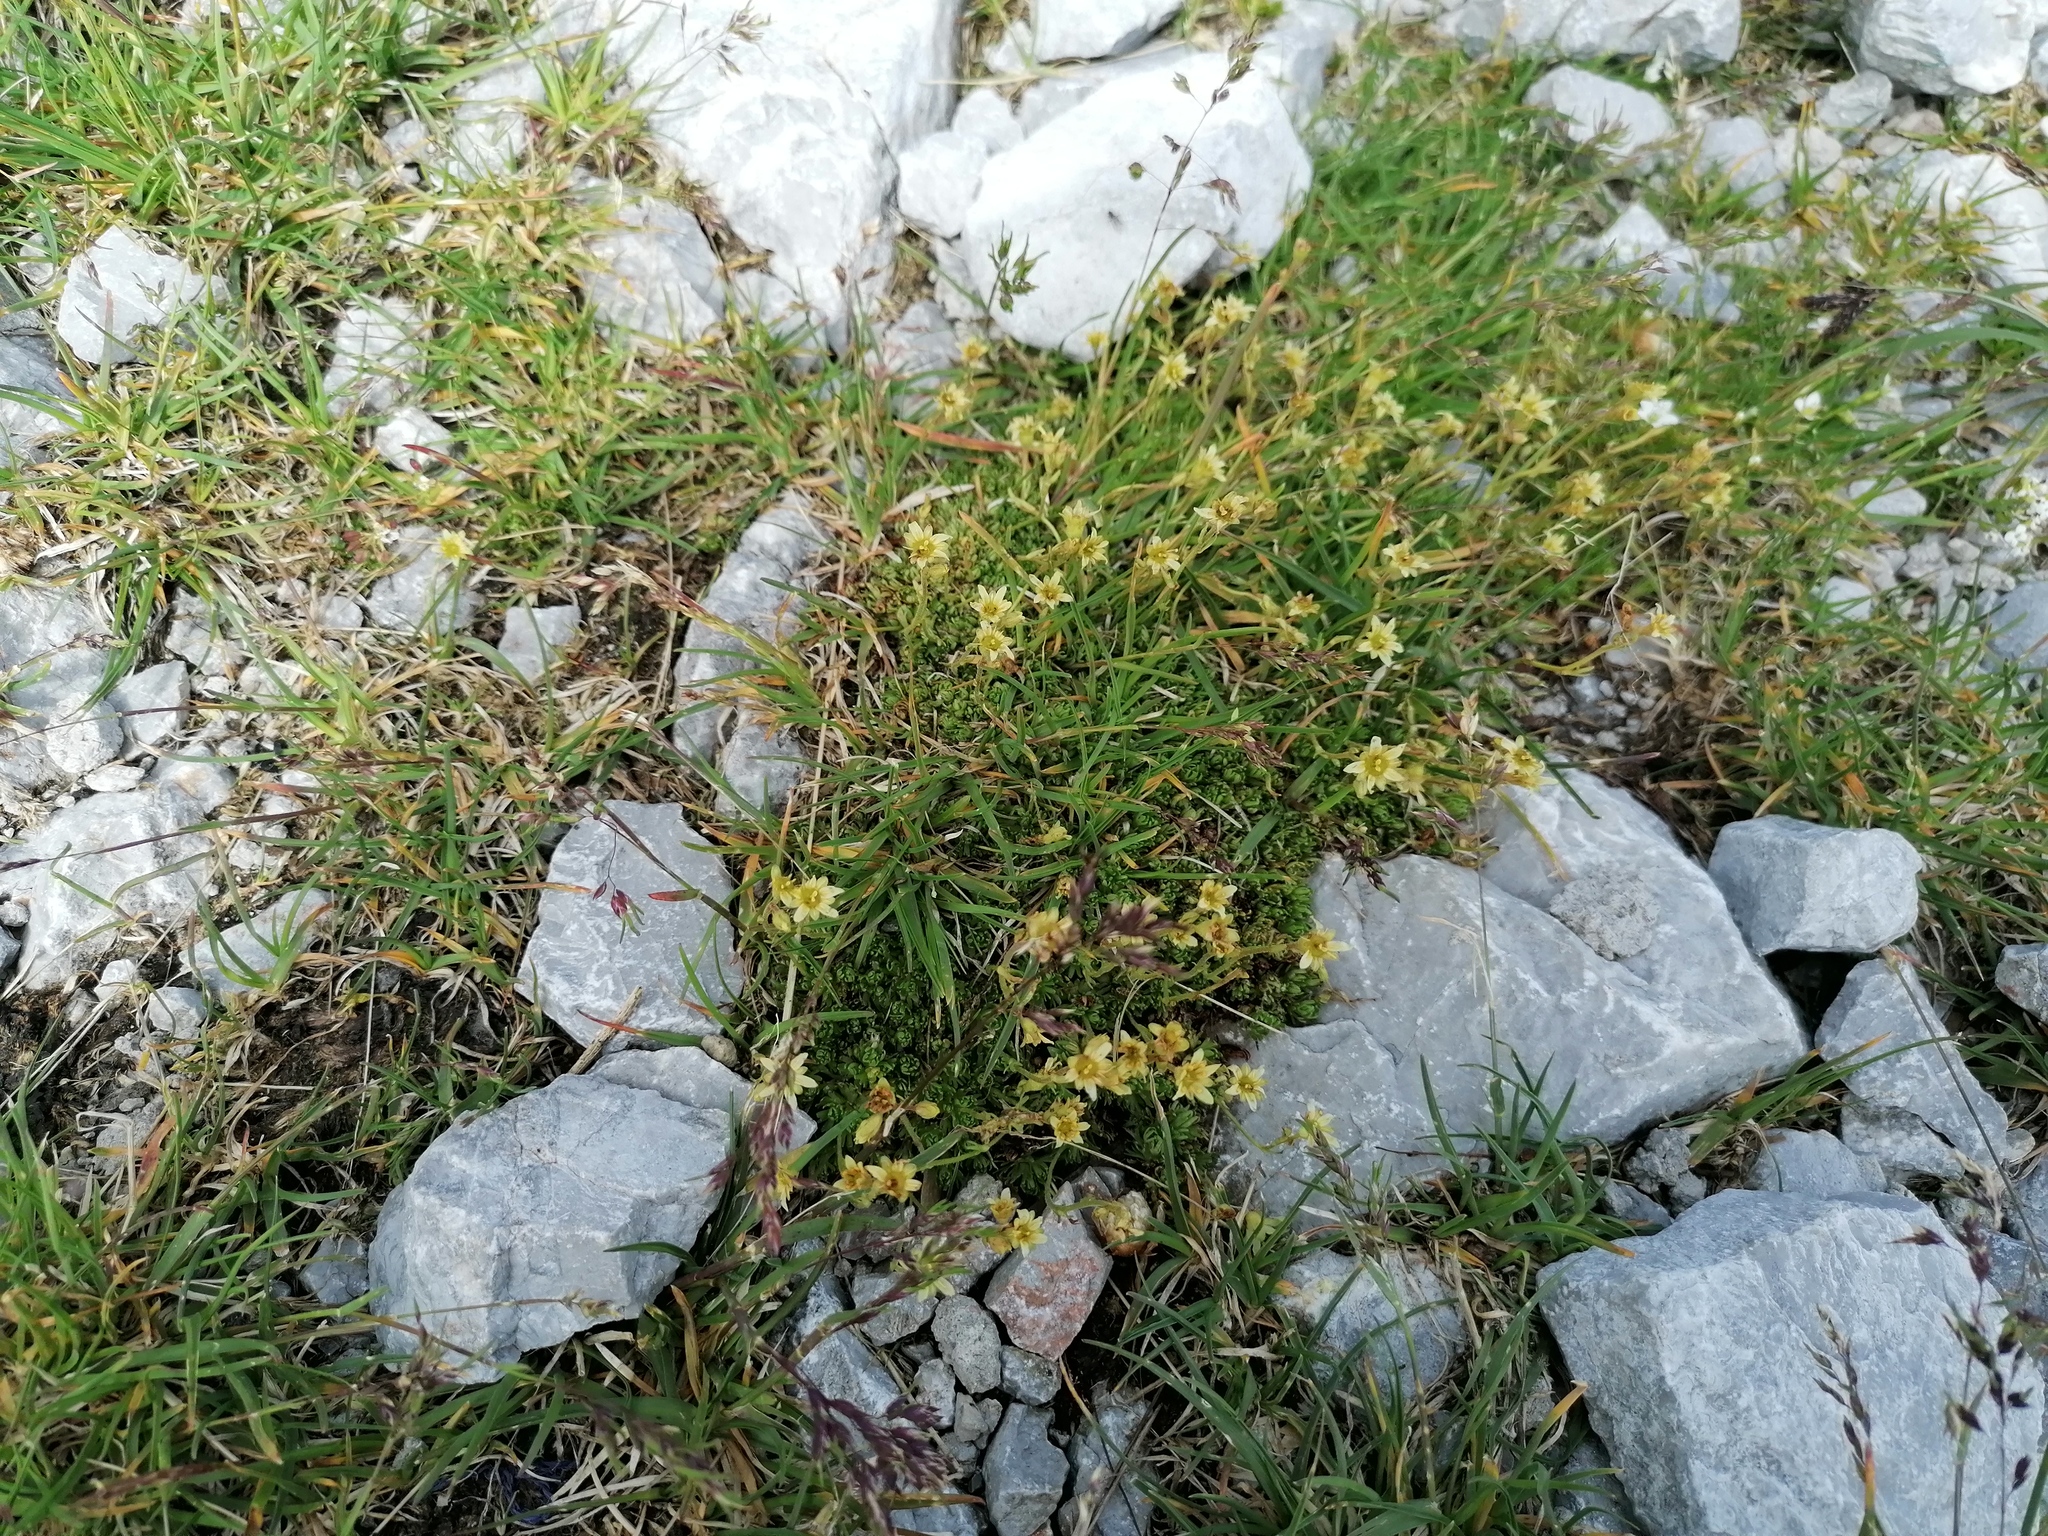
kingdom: Plantae
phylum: Tracheophyta
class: Magnoliopsida
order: Saxifragales
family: Saxifragaceae
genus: Saxifraga
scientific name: Saxifraga moschata
